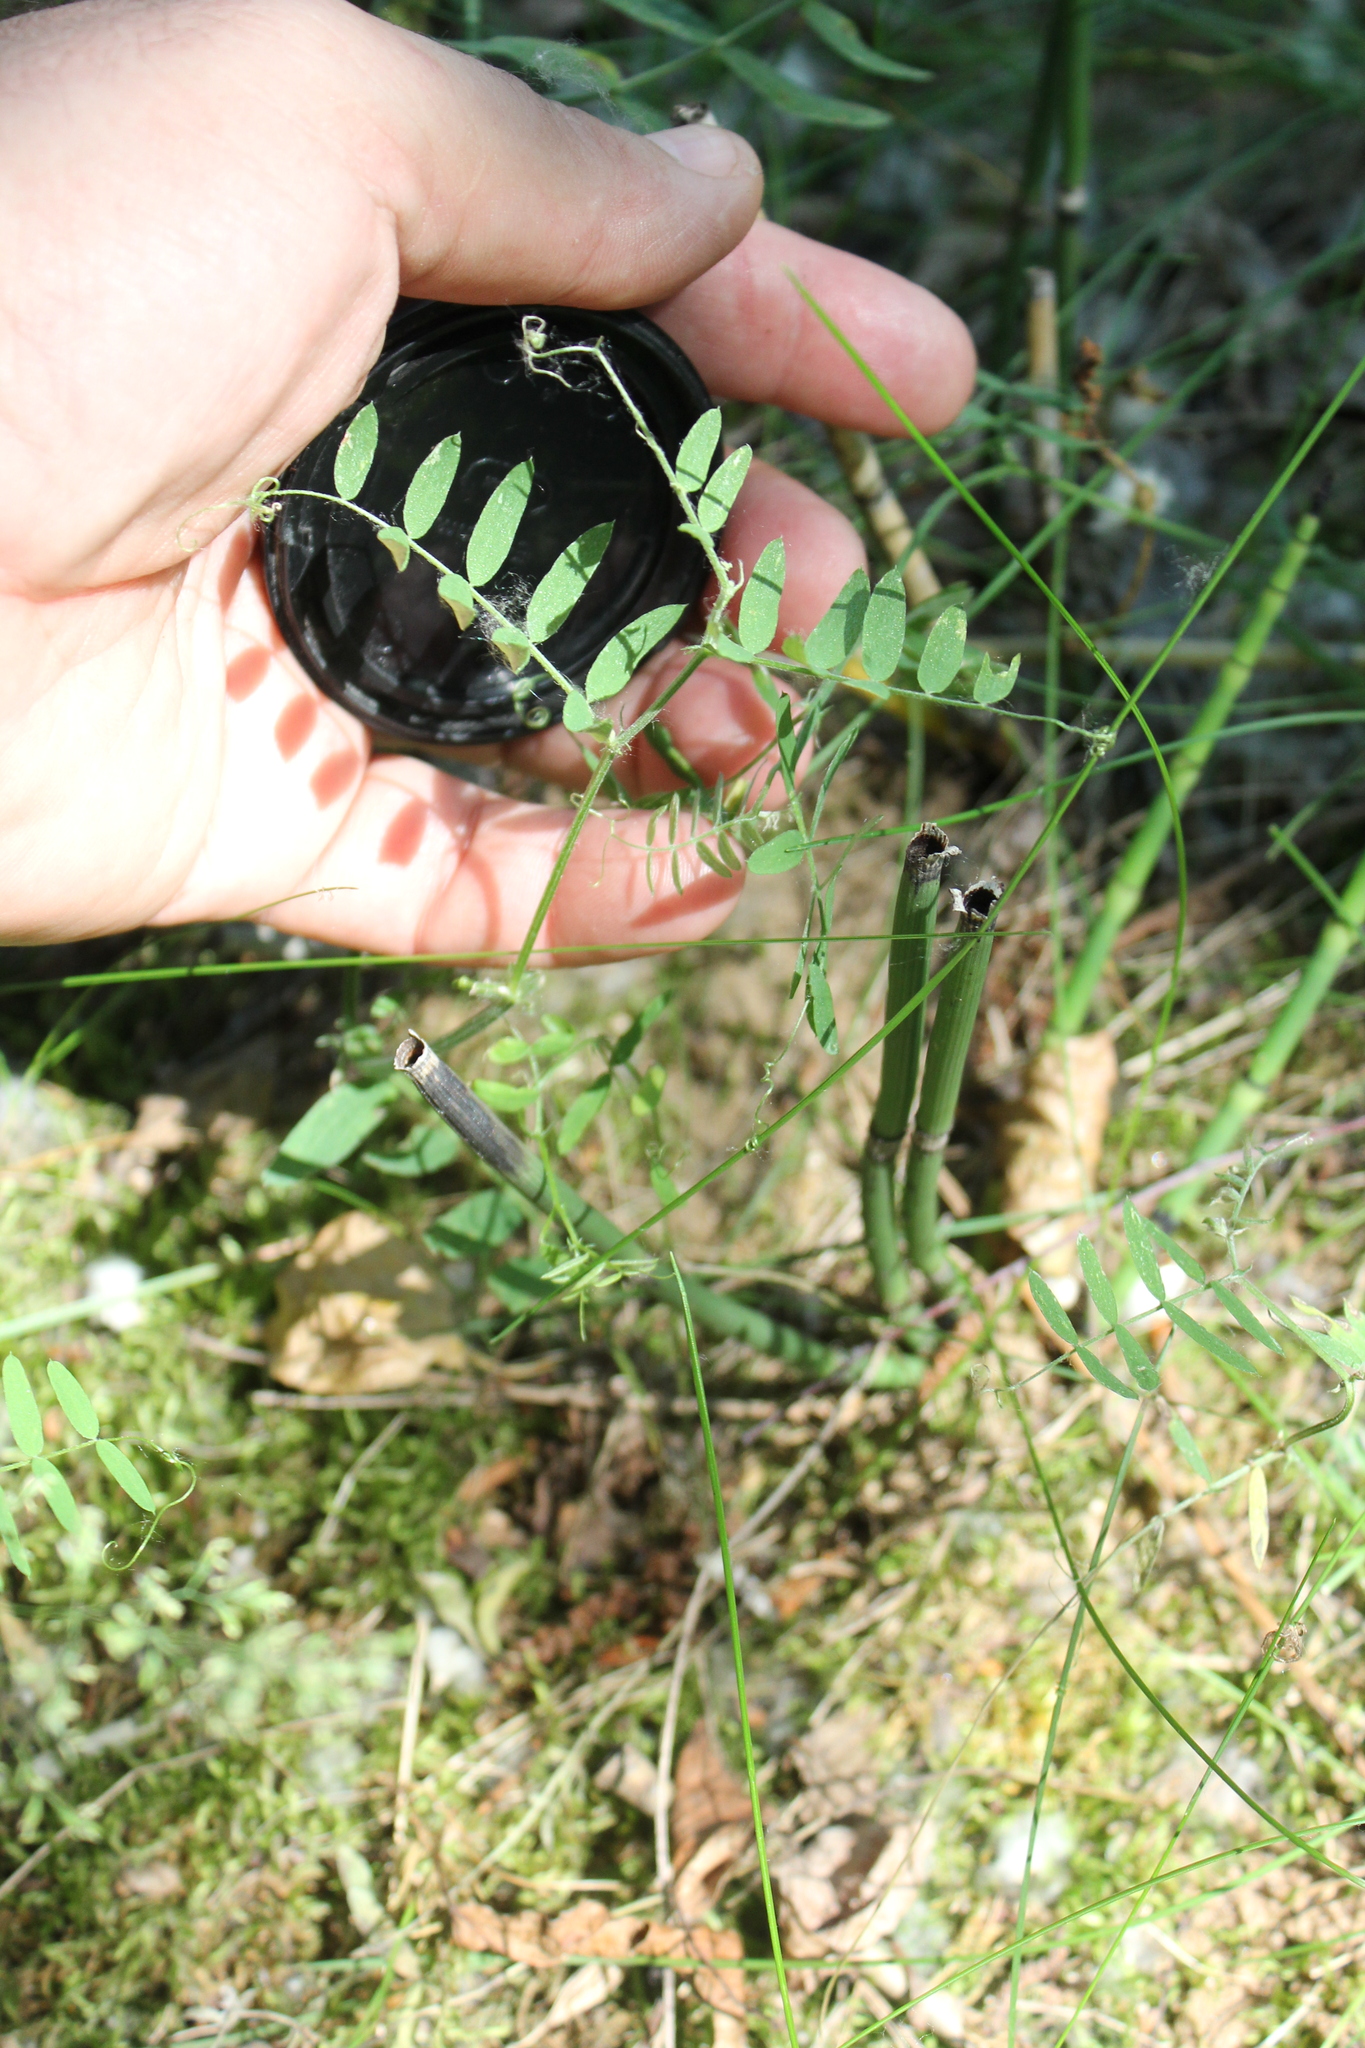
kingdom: Plantae
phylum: Tracheophyta
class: Magnoliopsida
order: Fabales
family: Fabaceae
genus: Vicia
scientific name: Vicia cracca
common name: Bird vetch
